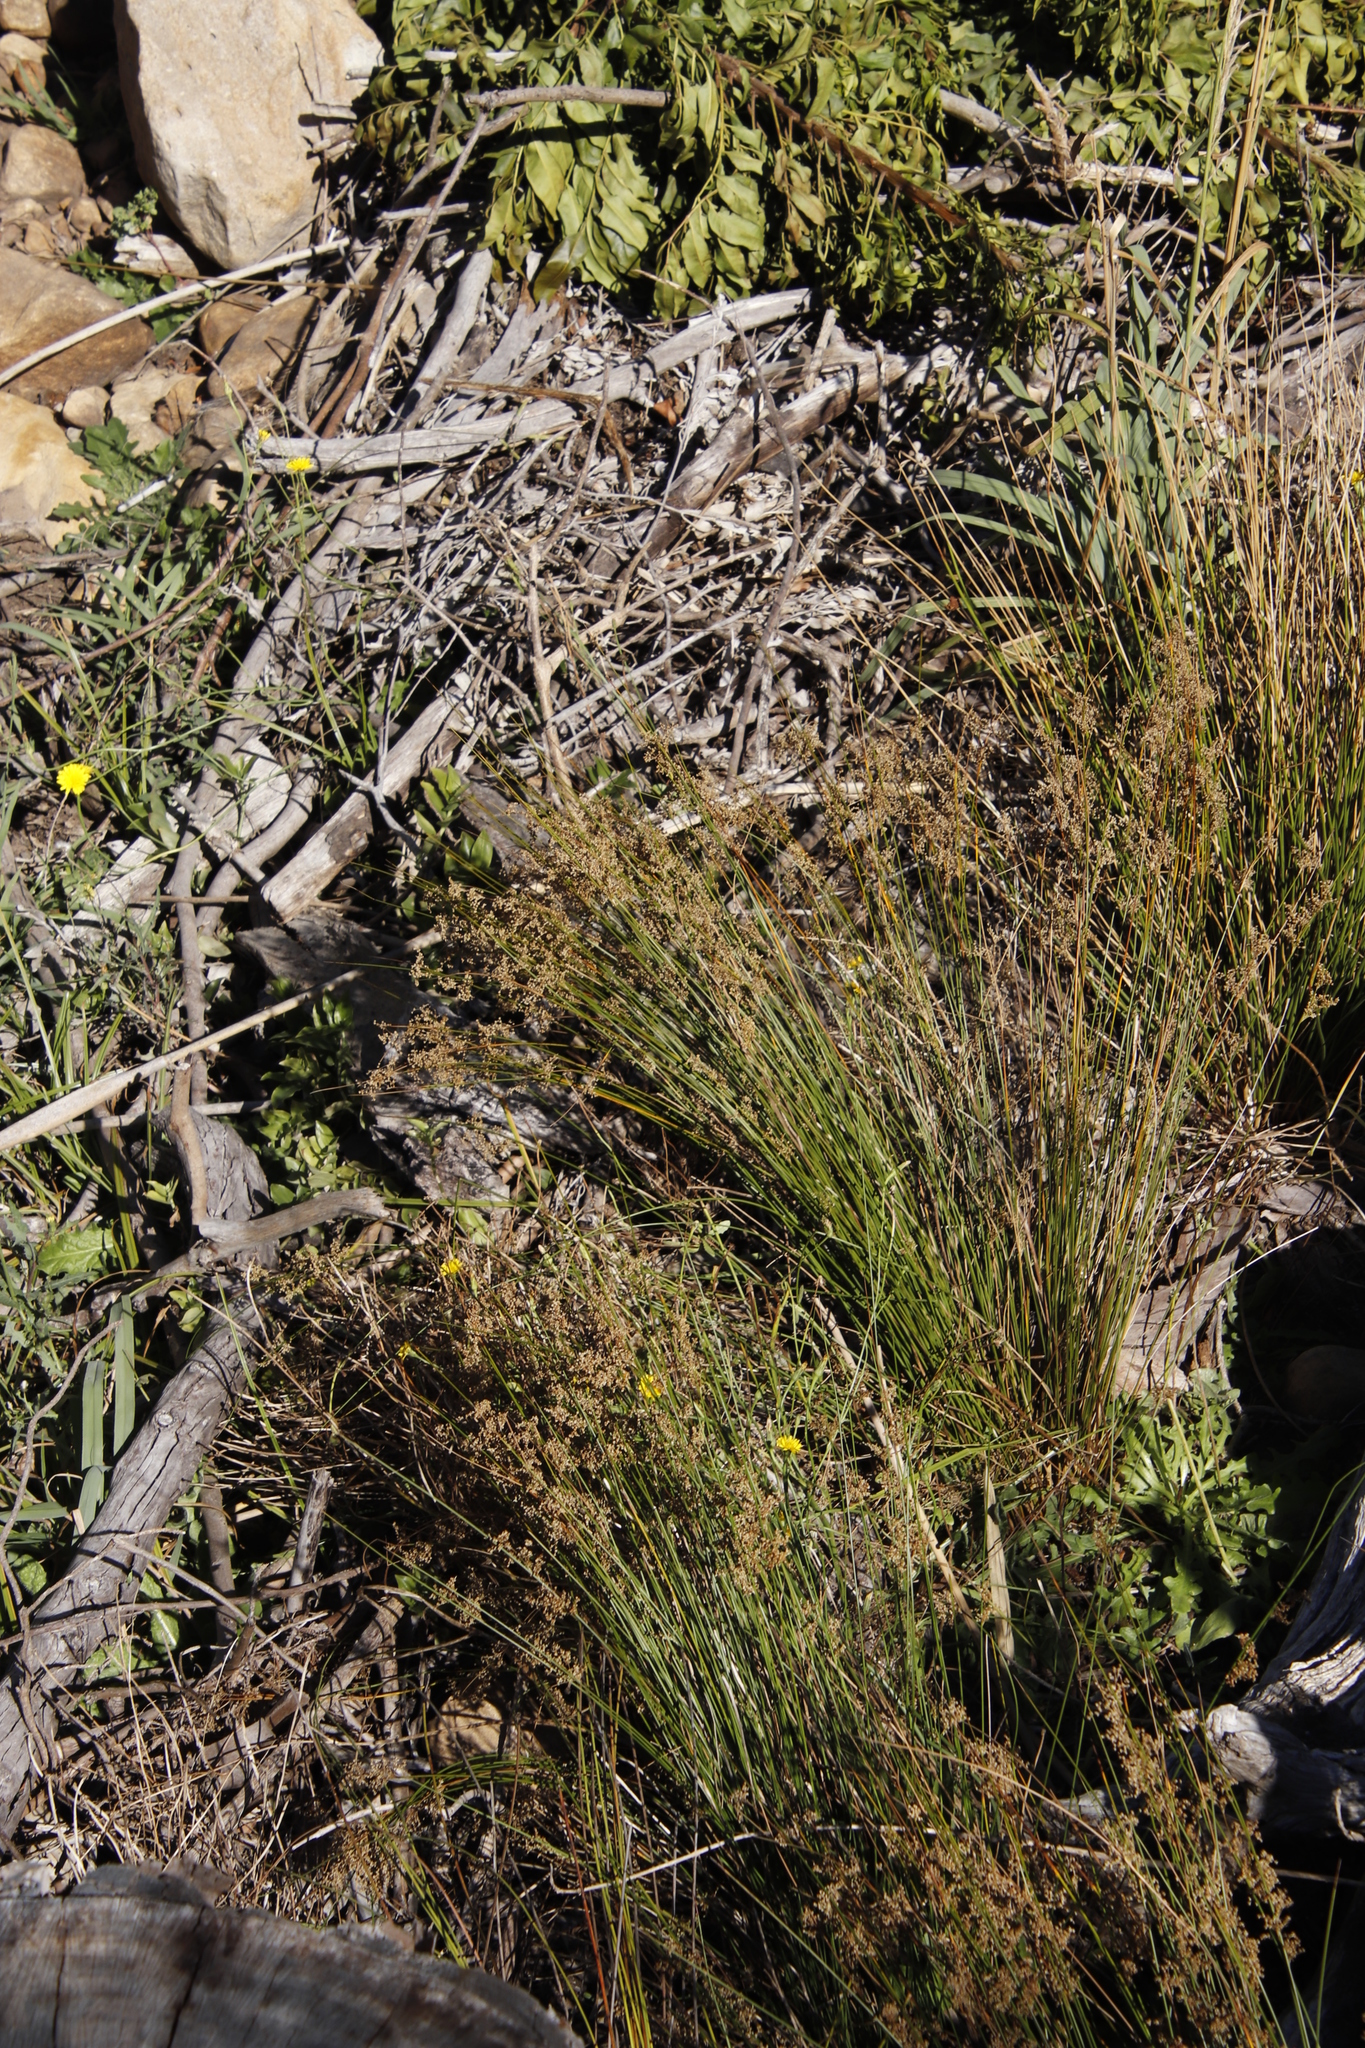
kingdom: Plantae
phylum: Tracheophyta
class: Liliopsida
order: Poales
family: Juncaceae
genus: Juncus
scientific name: Juncus effusus
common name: Soft rush
